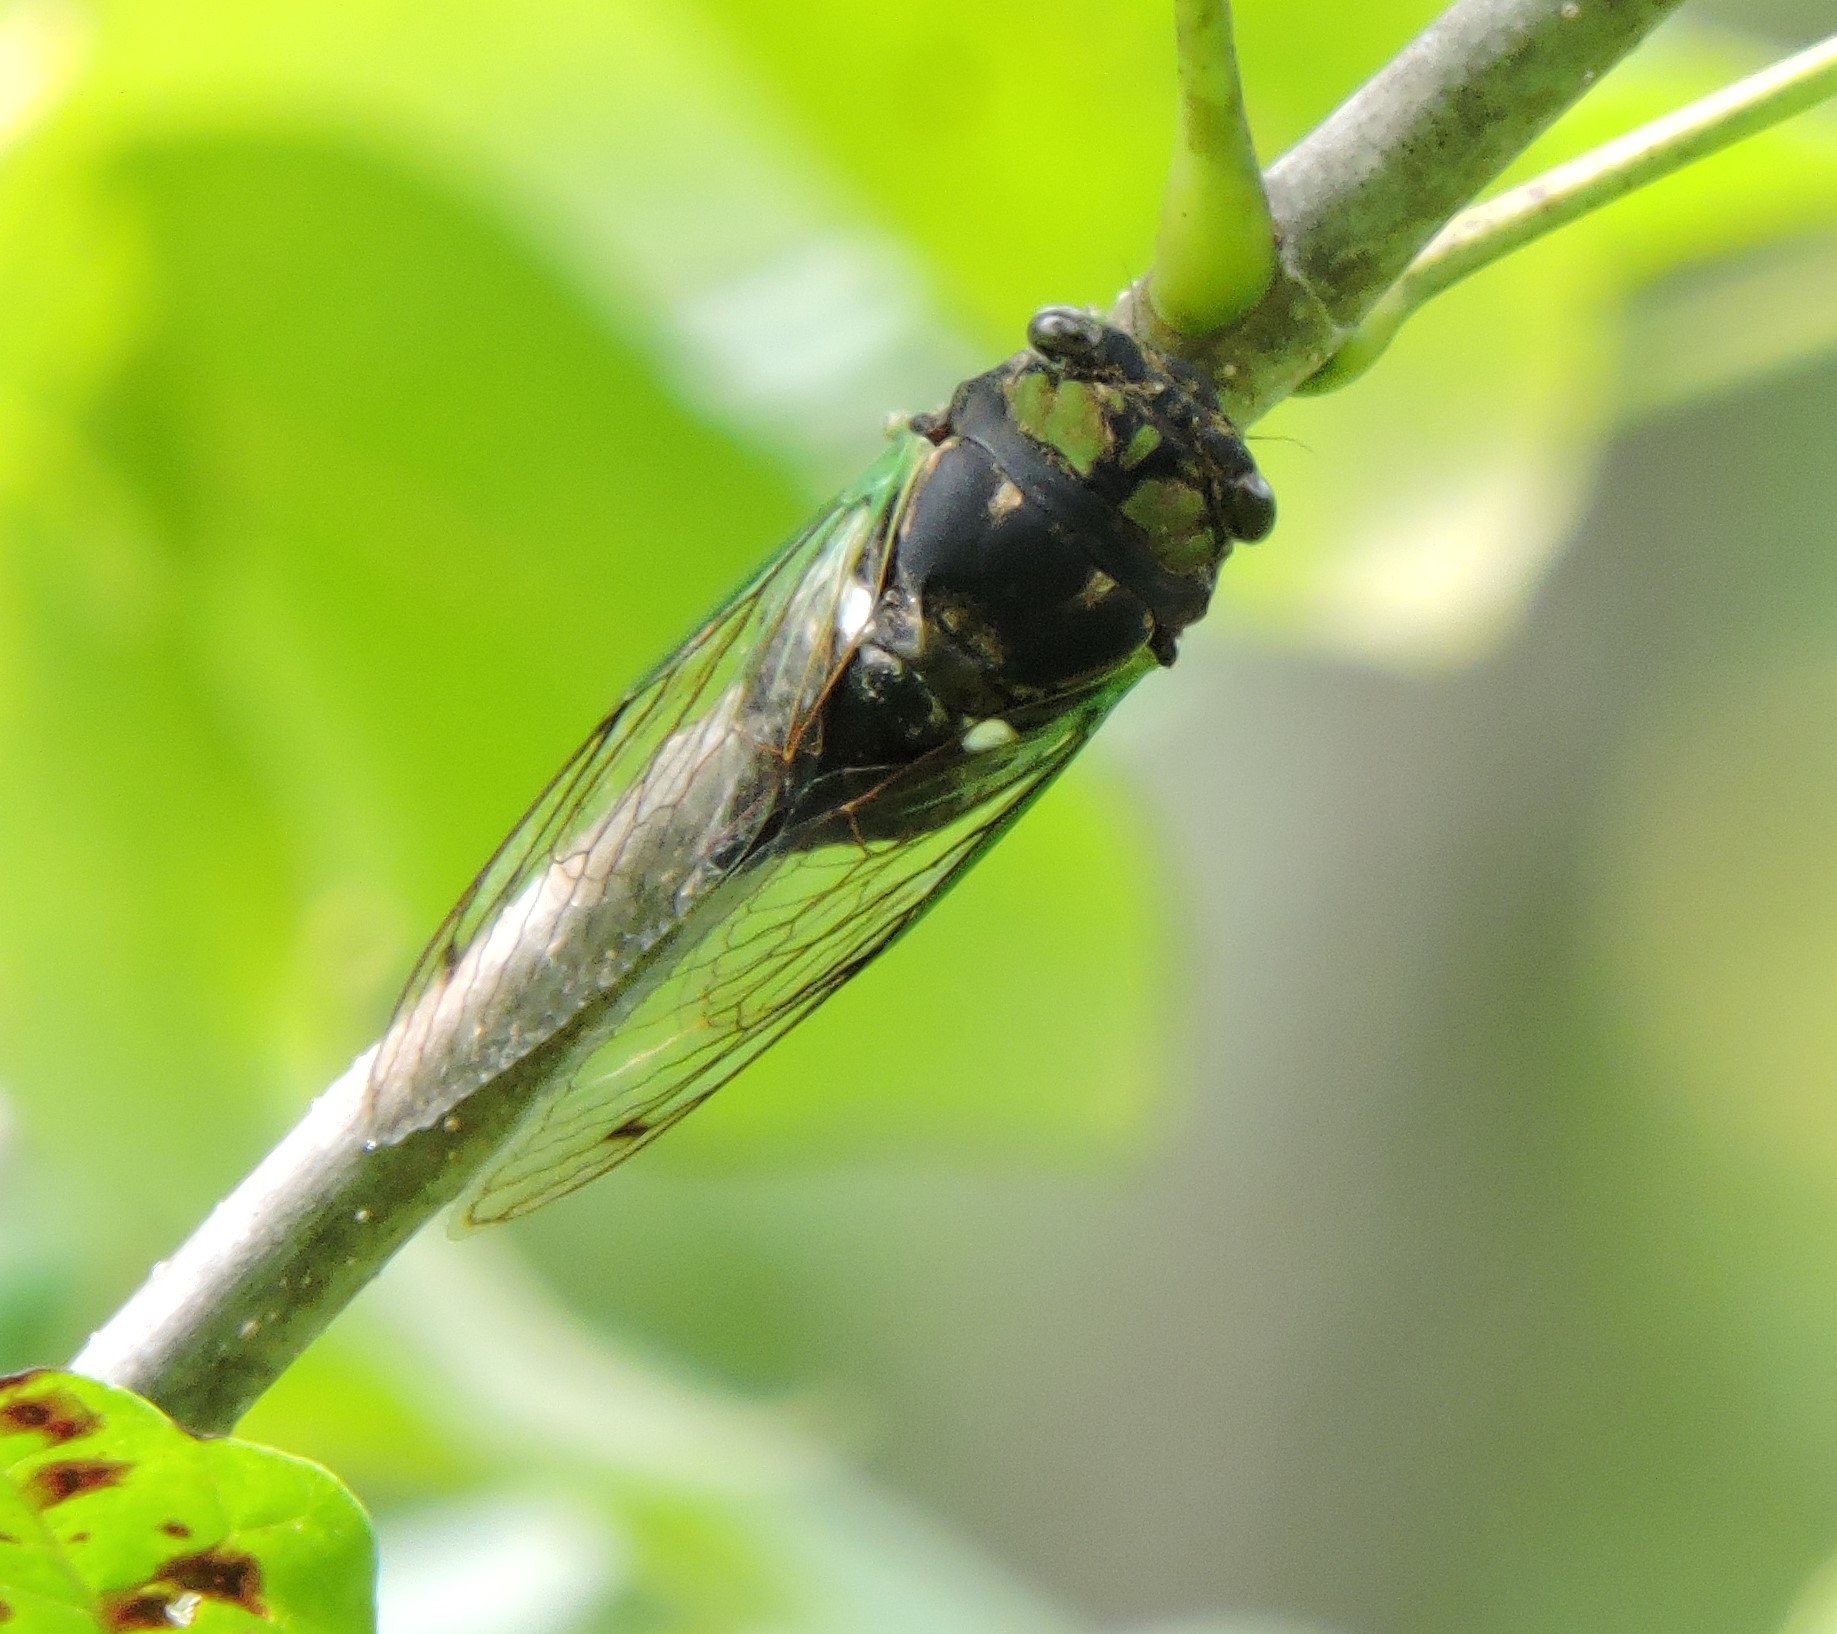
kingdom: Animalia
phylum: Arthropoda
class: Insecta
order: Hemiptera
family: Cicadidae
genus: Neotibicen
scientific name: Neotibicen tibicen
